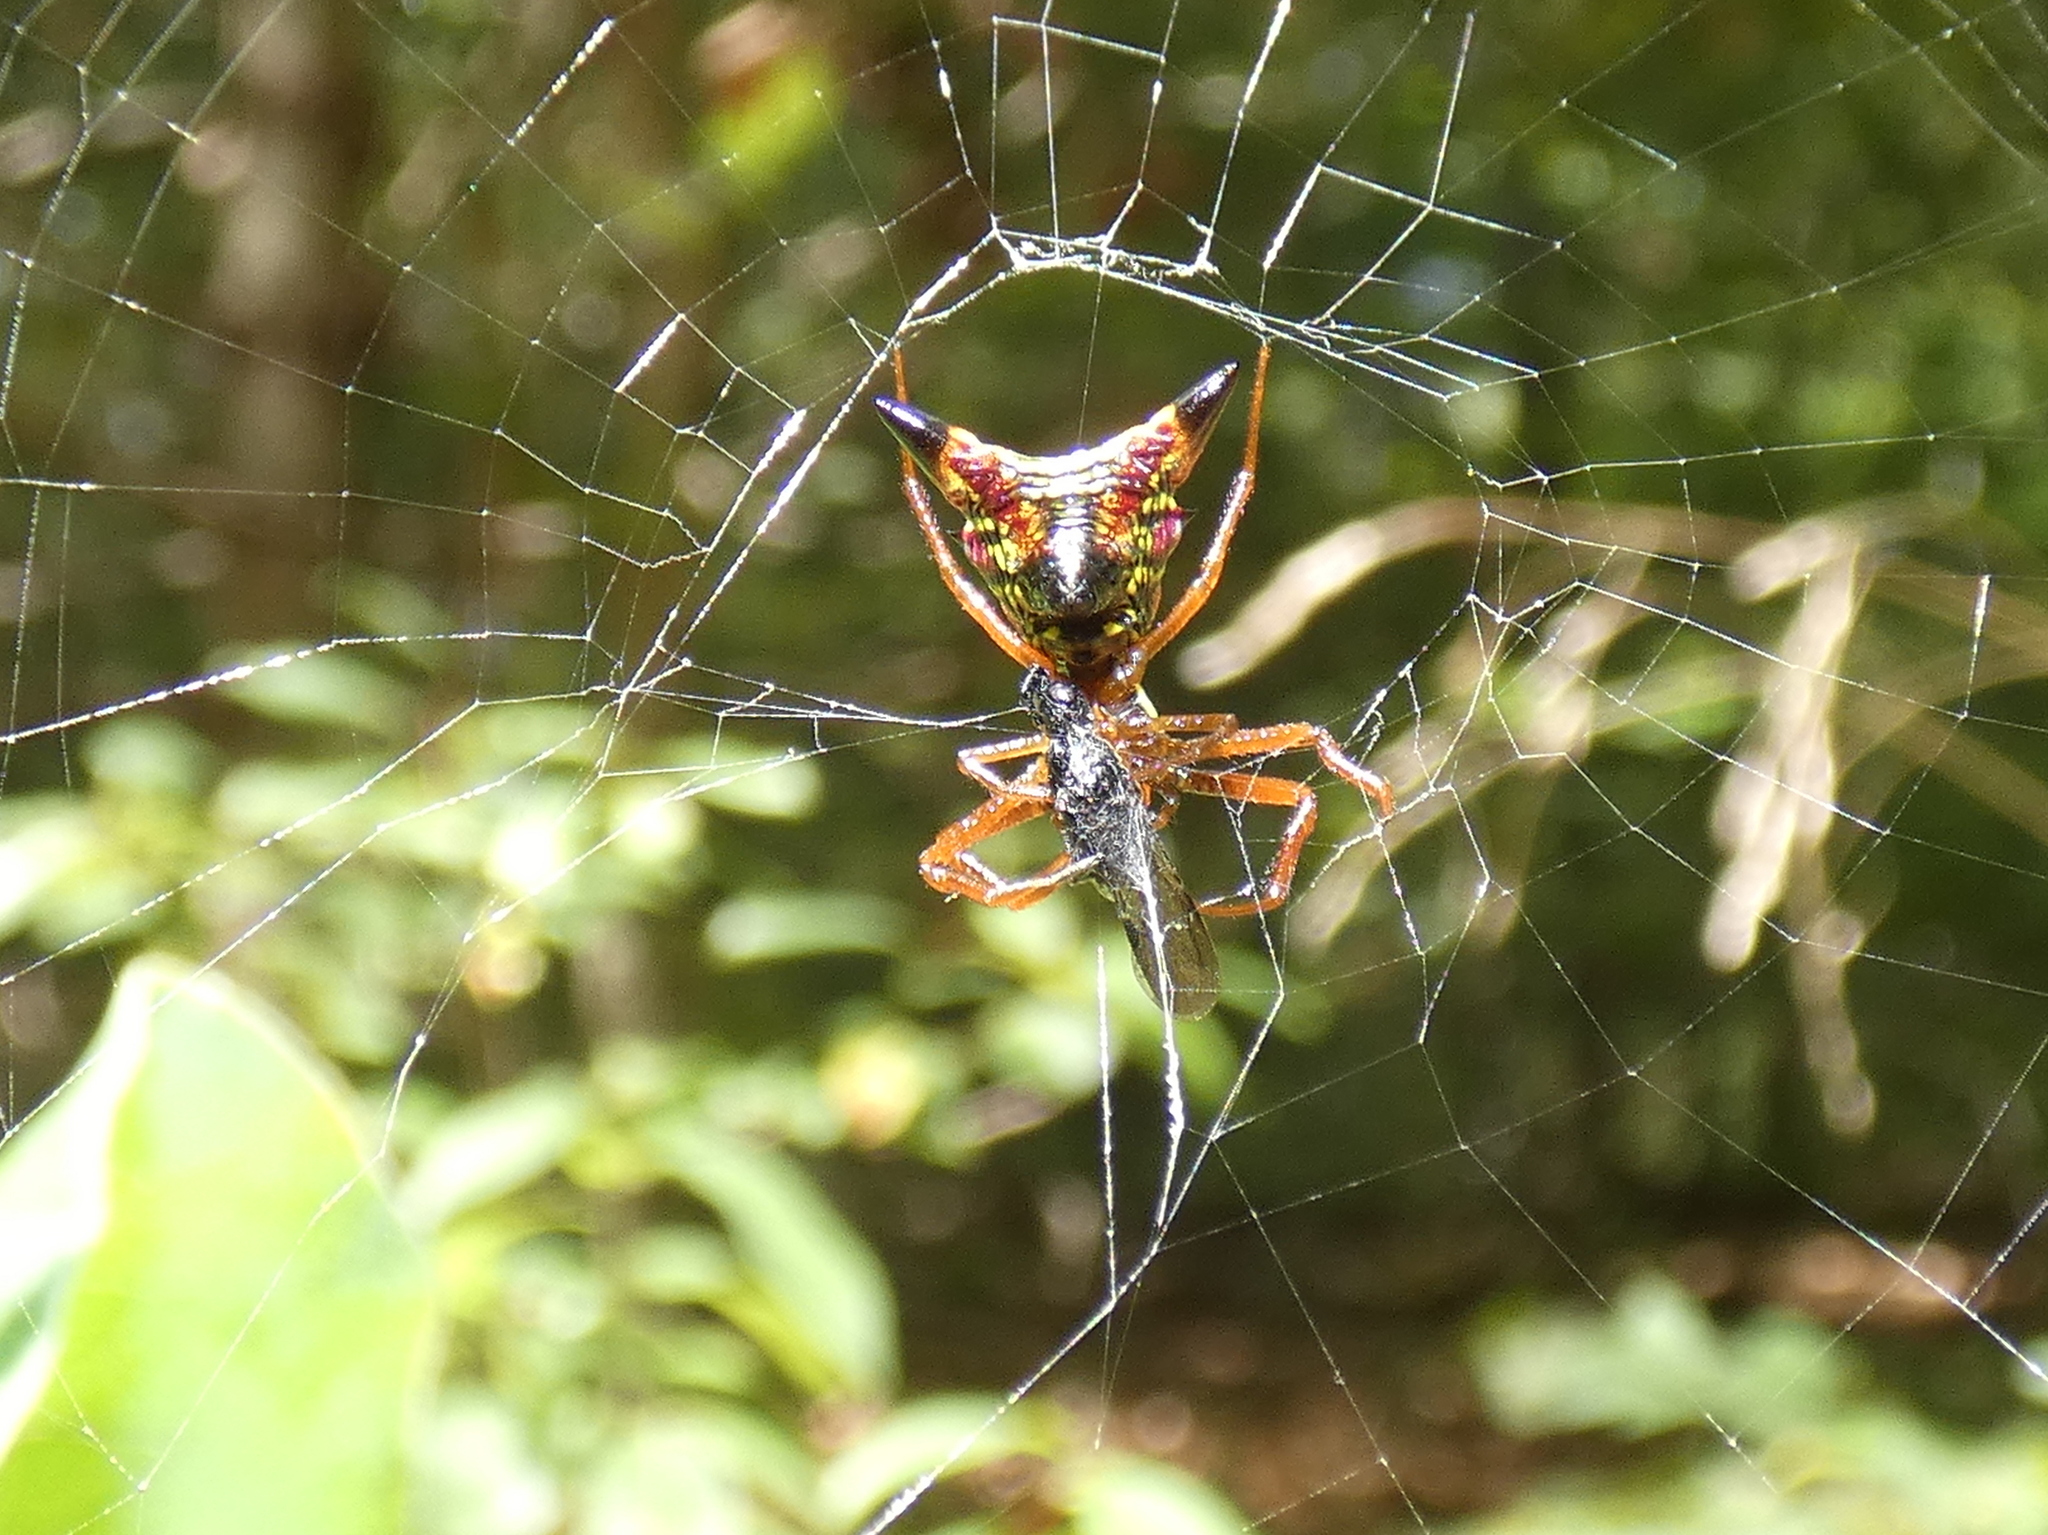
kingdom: Animalia
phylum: Arthropoda
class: Arachnida
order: Araneae
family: Araneidae
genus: Micrathena
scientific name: Micrathena sagittata
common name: Orb weavers
